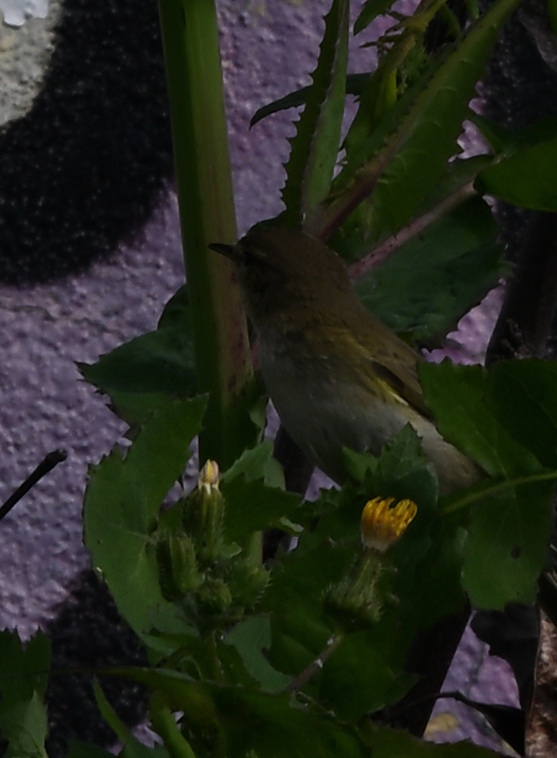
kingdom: Animalia
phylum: Chordata
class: Aves
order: Passeriformes
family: Phylloscopidae
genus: Phylloscopus
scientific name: Phylloscopus collybita
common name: Common chiffchaff
